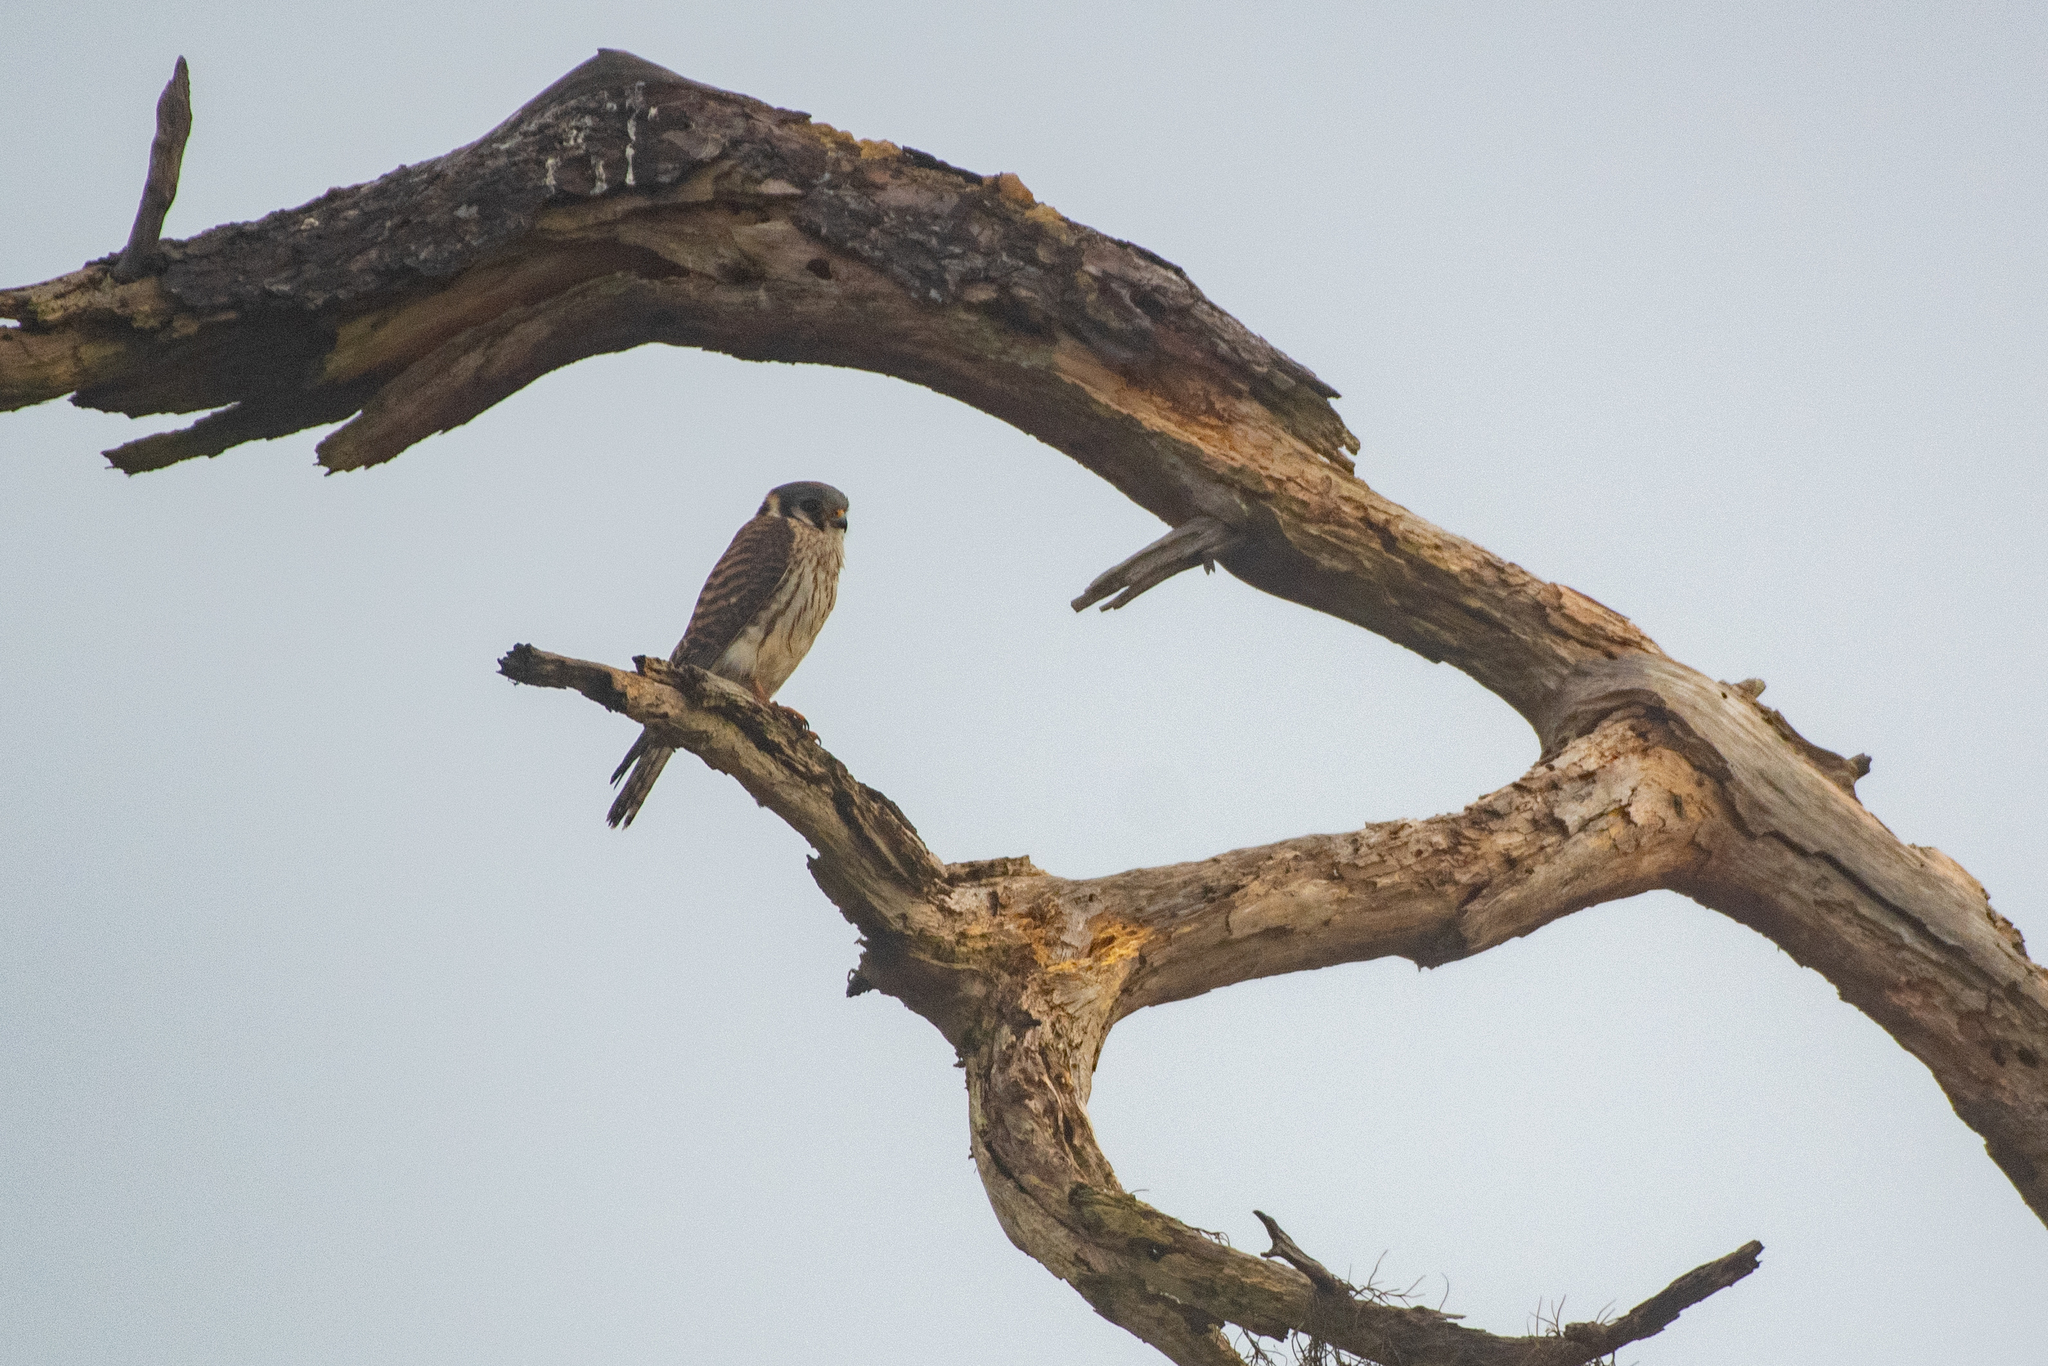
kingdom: Animalia
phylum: Chordata
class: Aves
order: Falconiformes
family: Falconidae
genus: Falco
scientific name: Falco sparverius
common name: American kestrel
